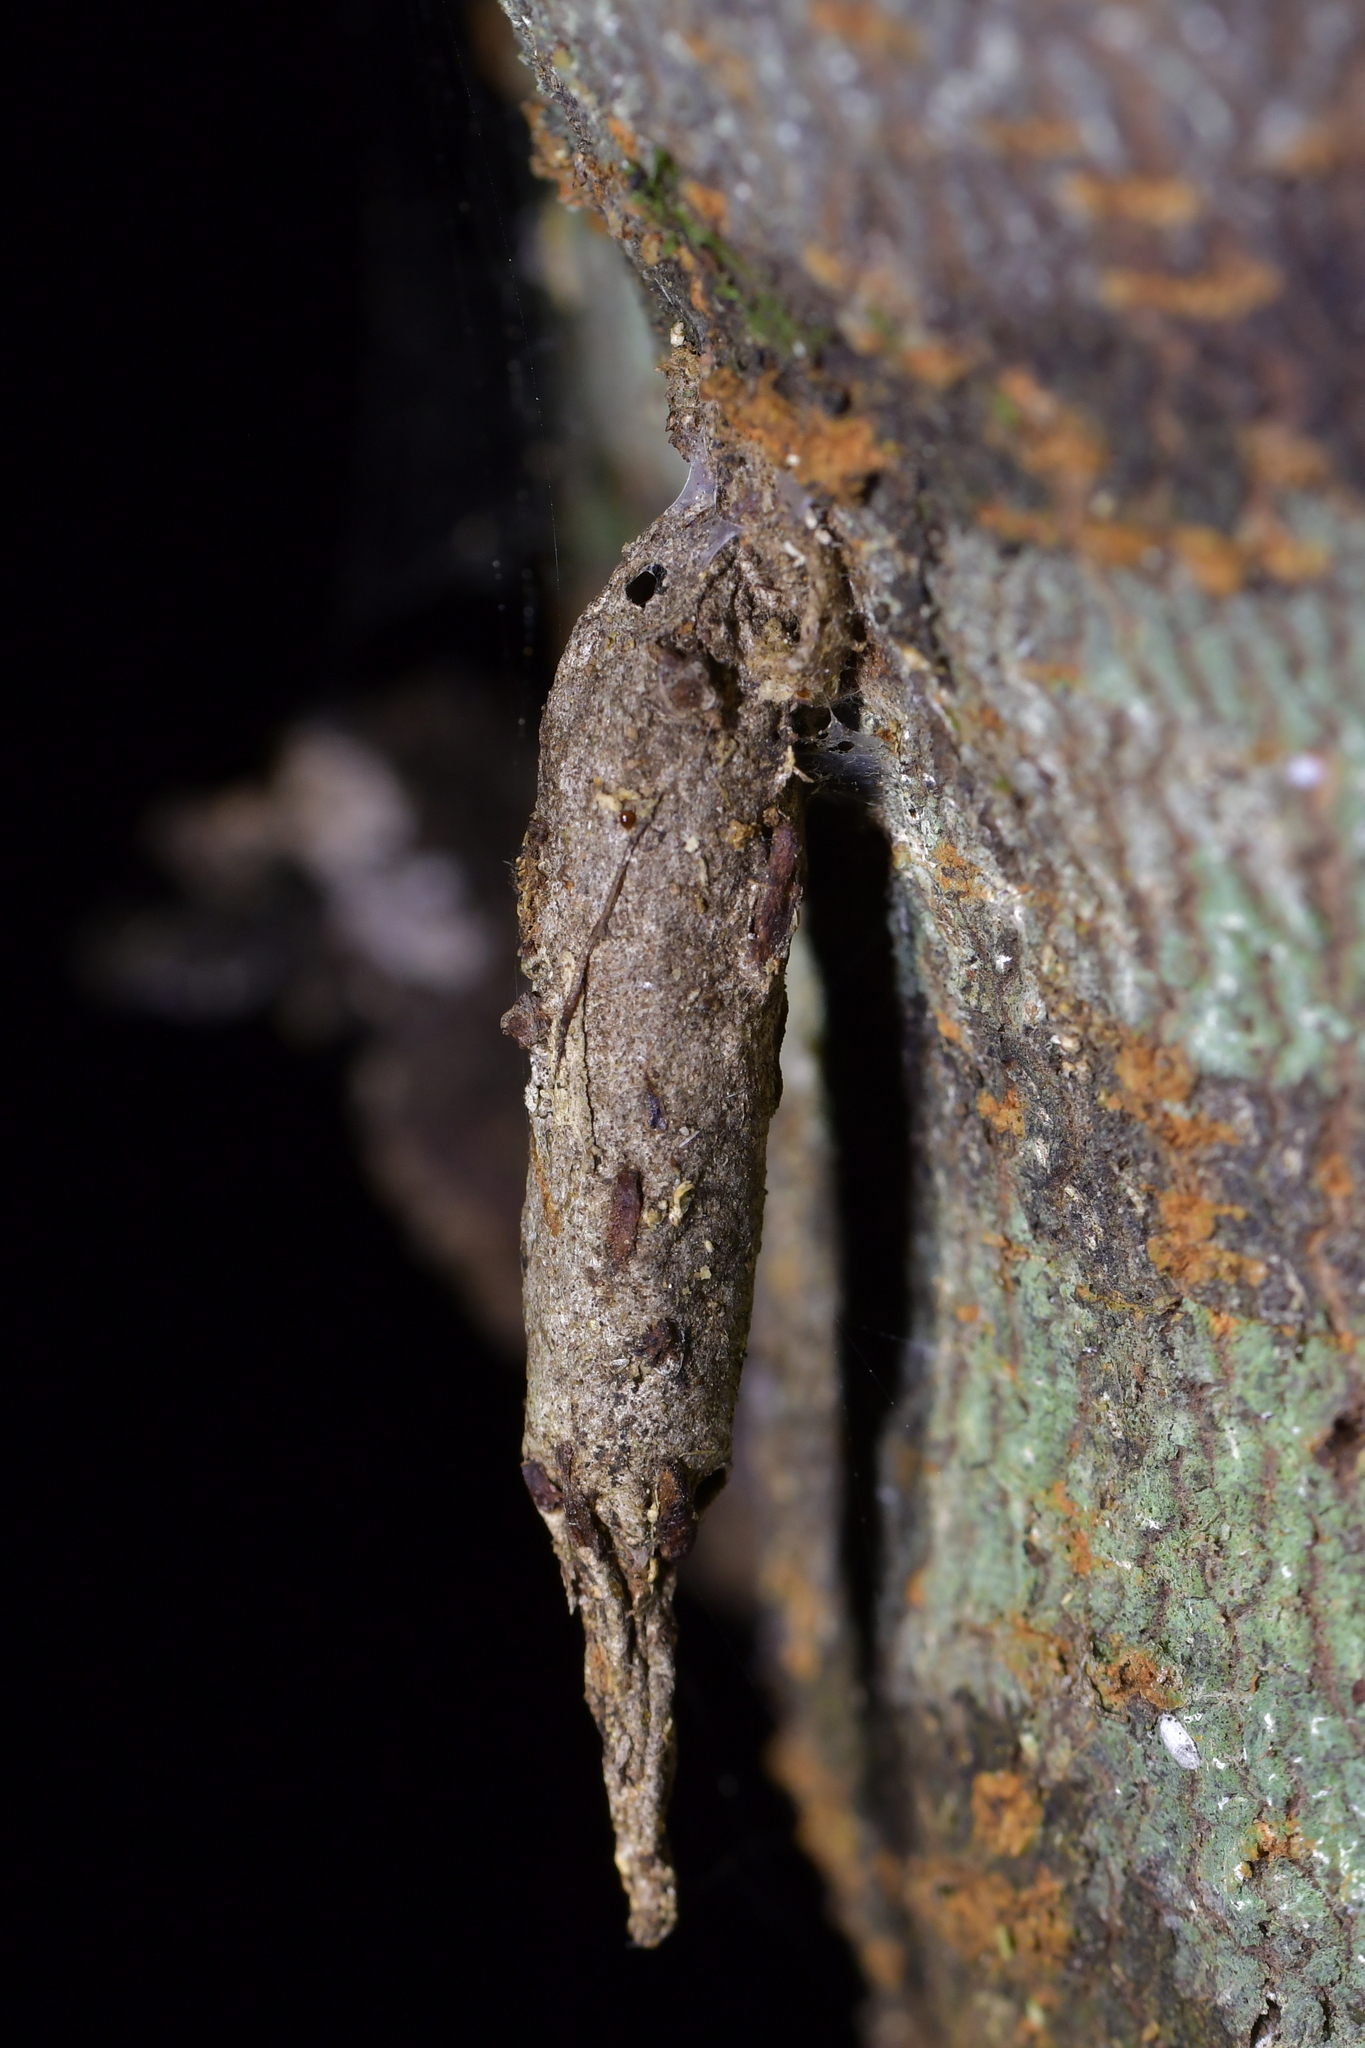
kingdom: Animalia
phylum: Arthropoda
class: Insecta
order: Lepidoptera
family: Psychidae
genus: Liothula
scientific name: Liothula omnivora
